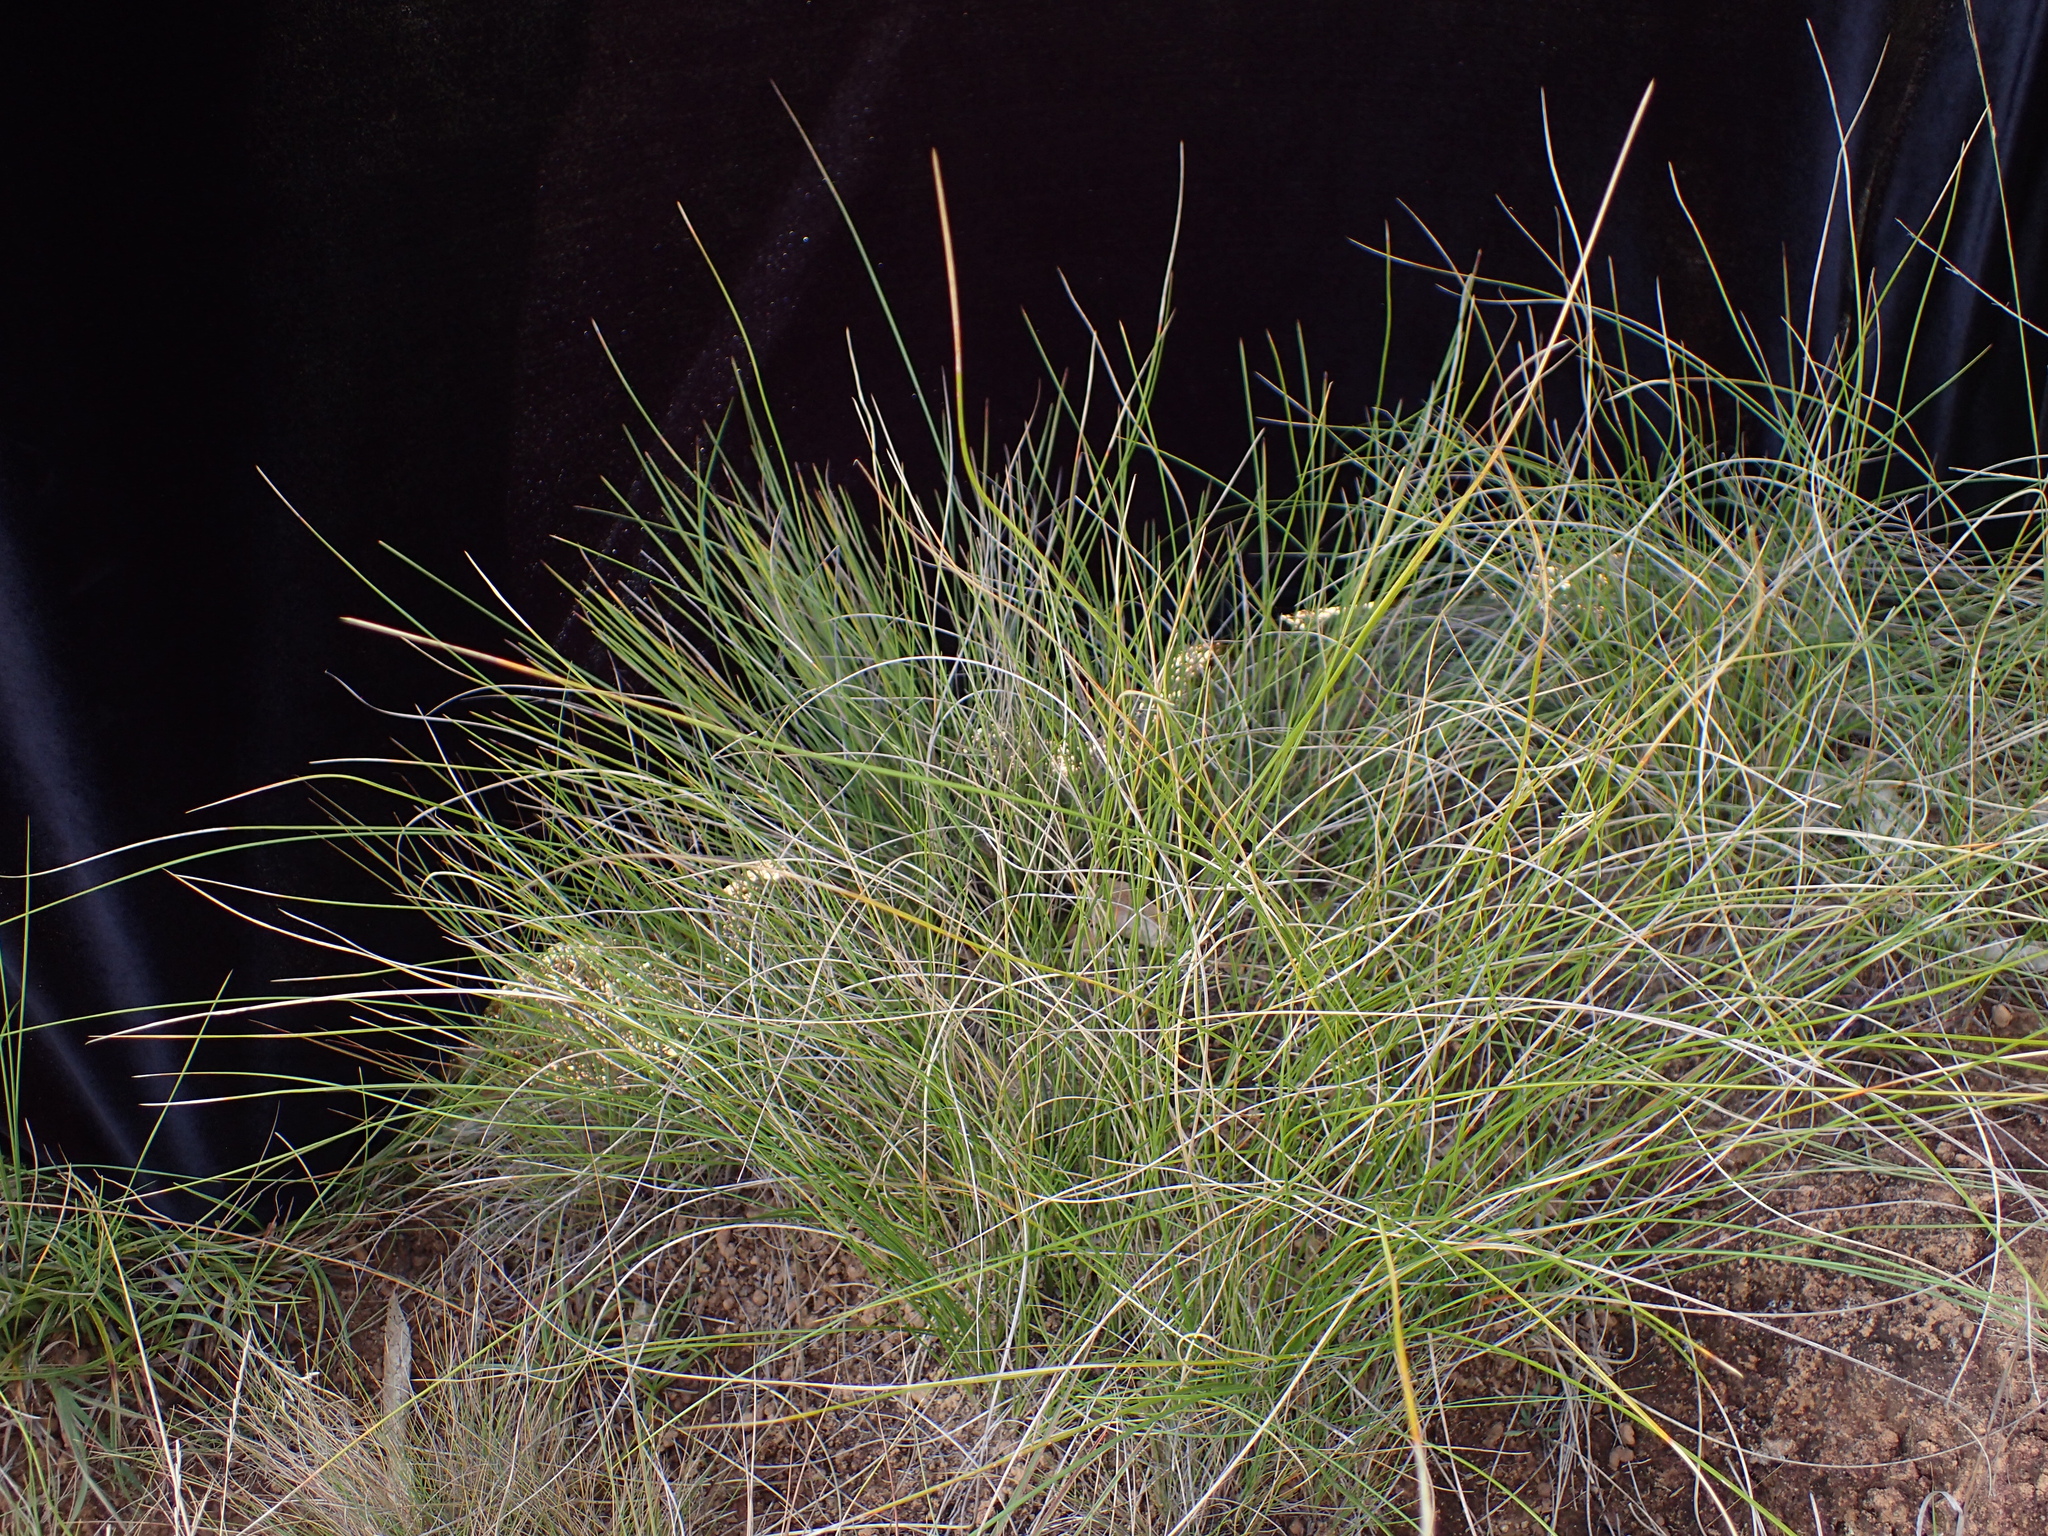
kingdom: Plantae
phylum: Tracheophyta
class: Liliopsida
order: Poales
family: Poaceae
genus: Styppeiochloa
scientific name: Styppeiochloa hitchcockii
